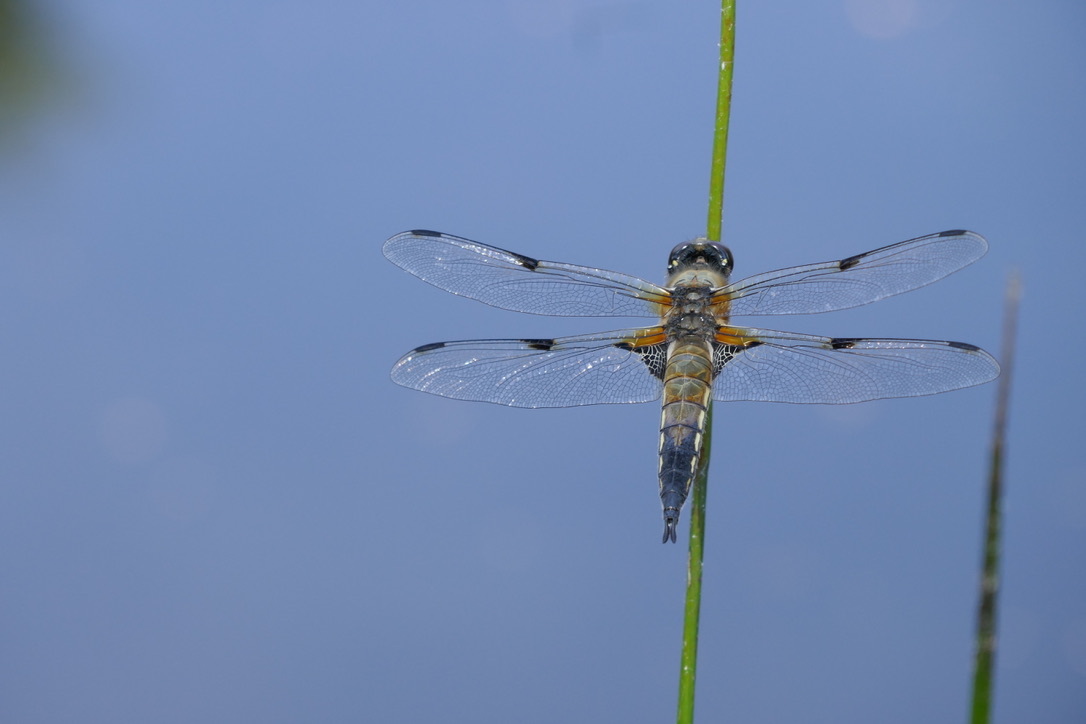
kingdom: Animalia
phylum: Arthropoda
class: Insecta
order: Odonata
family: Libellulidae
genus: Libellula
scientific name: Libellula quadrimaculata
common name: Four-spotted chaser
